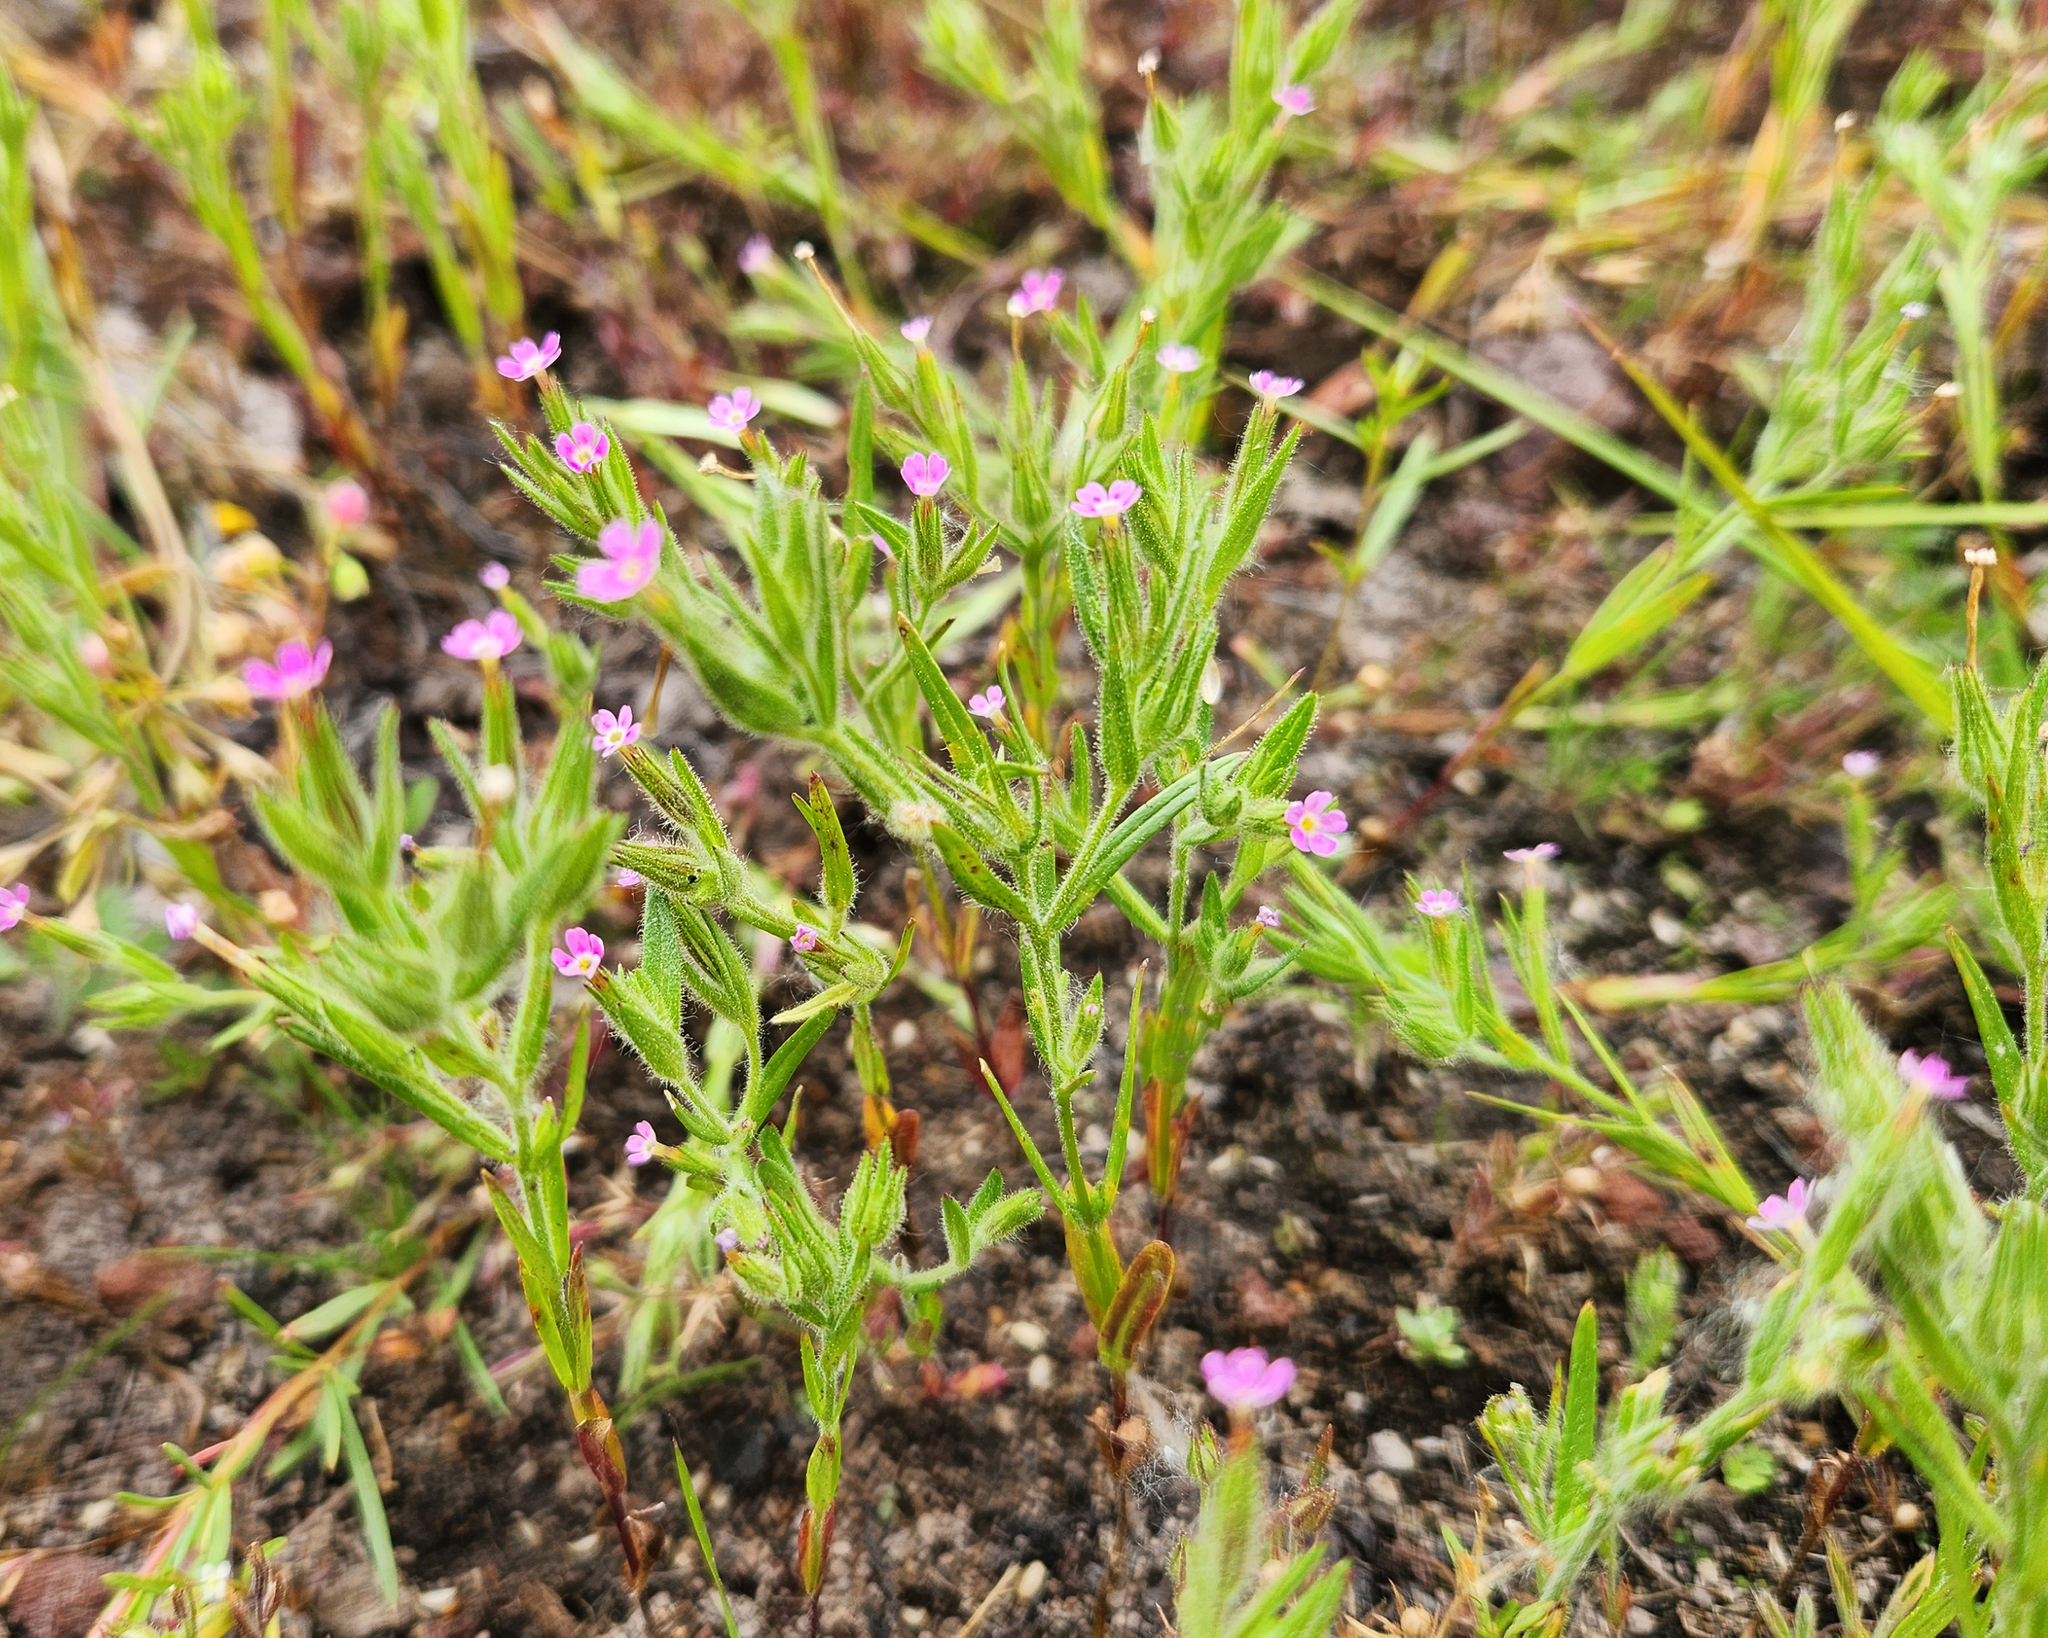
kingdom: Plantae
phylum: Tracheophyta
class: Magnoliopsida
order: Ericales
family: Polemoniaceae
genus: Phlox
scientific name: Phlox gracilis
